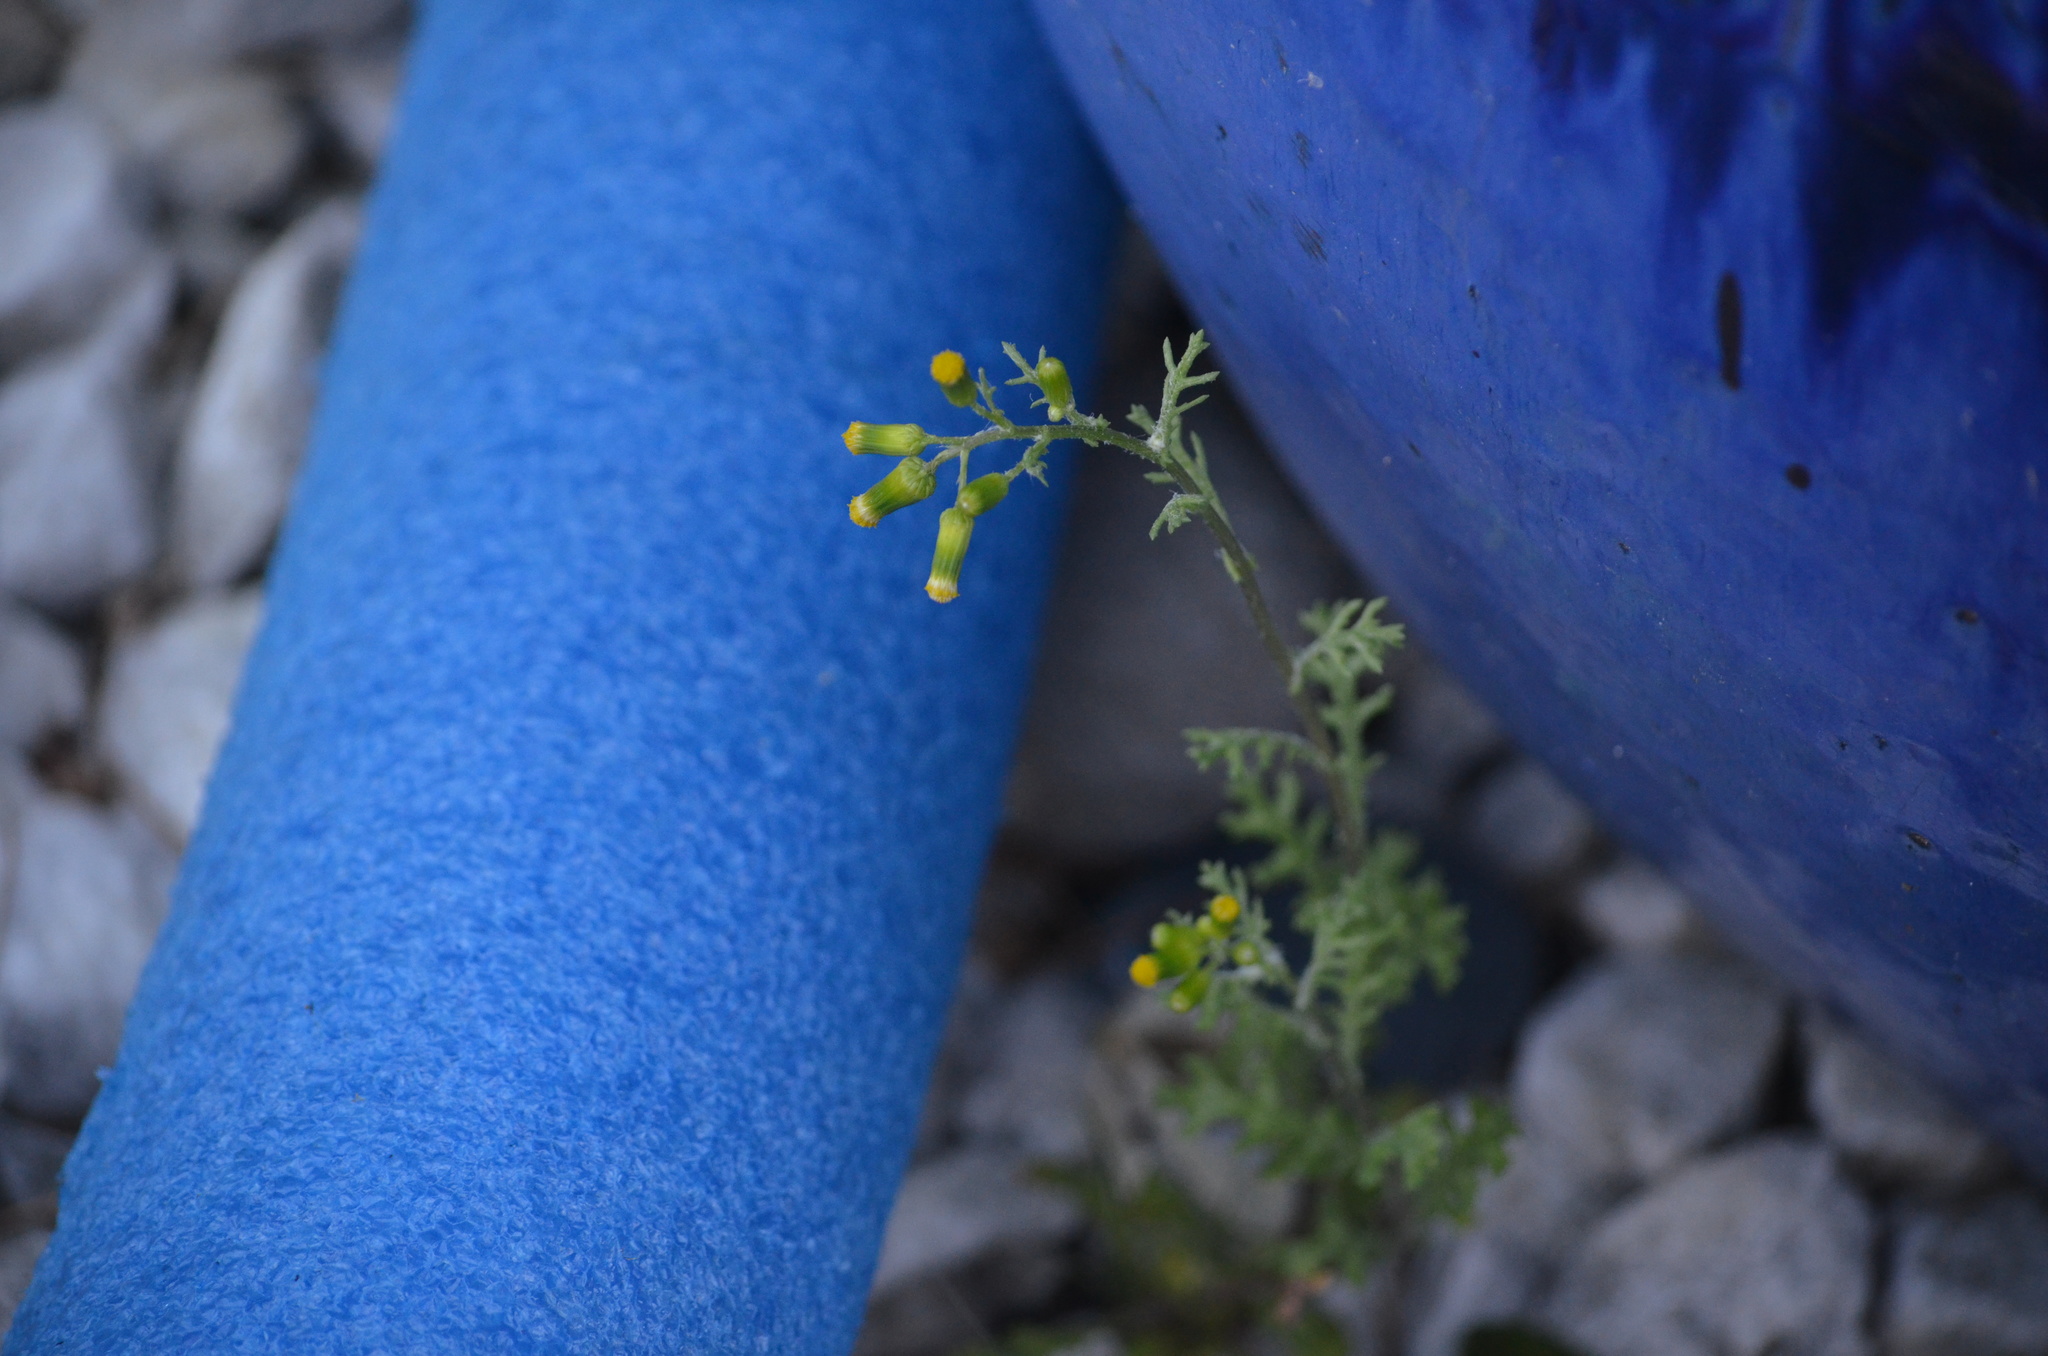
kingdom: Plantae
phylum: Tracheophyta
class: Magnoliopsida
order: Asterales
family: Asteraceae
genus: Senecio
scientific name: Senecio vulgaris
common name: Old-man-in-the-spring
